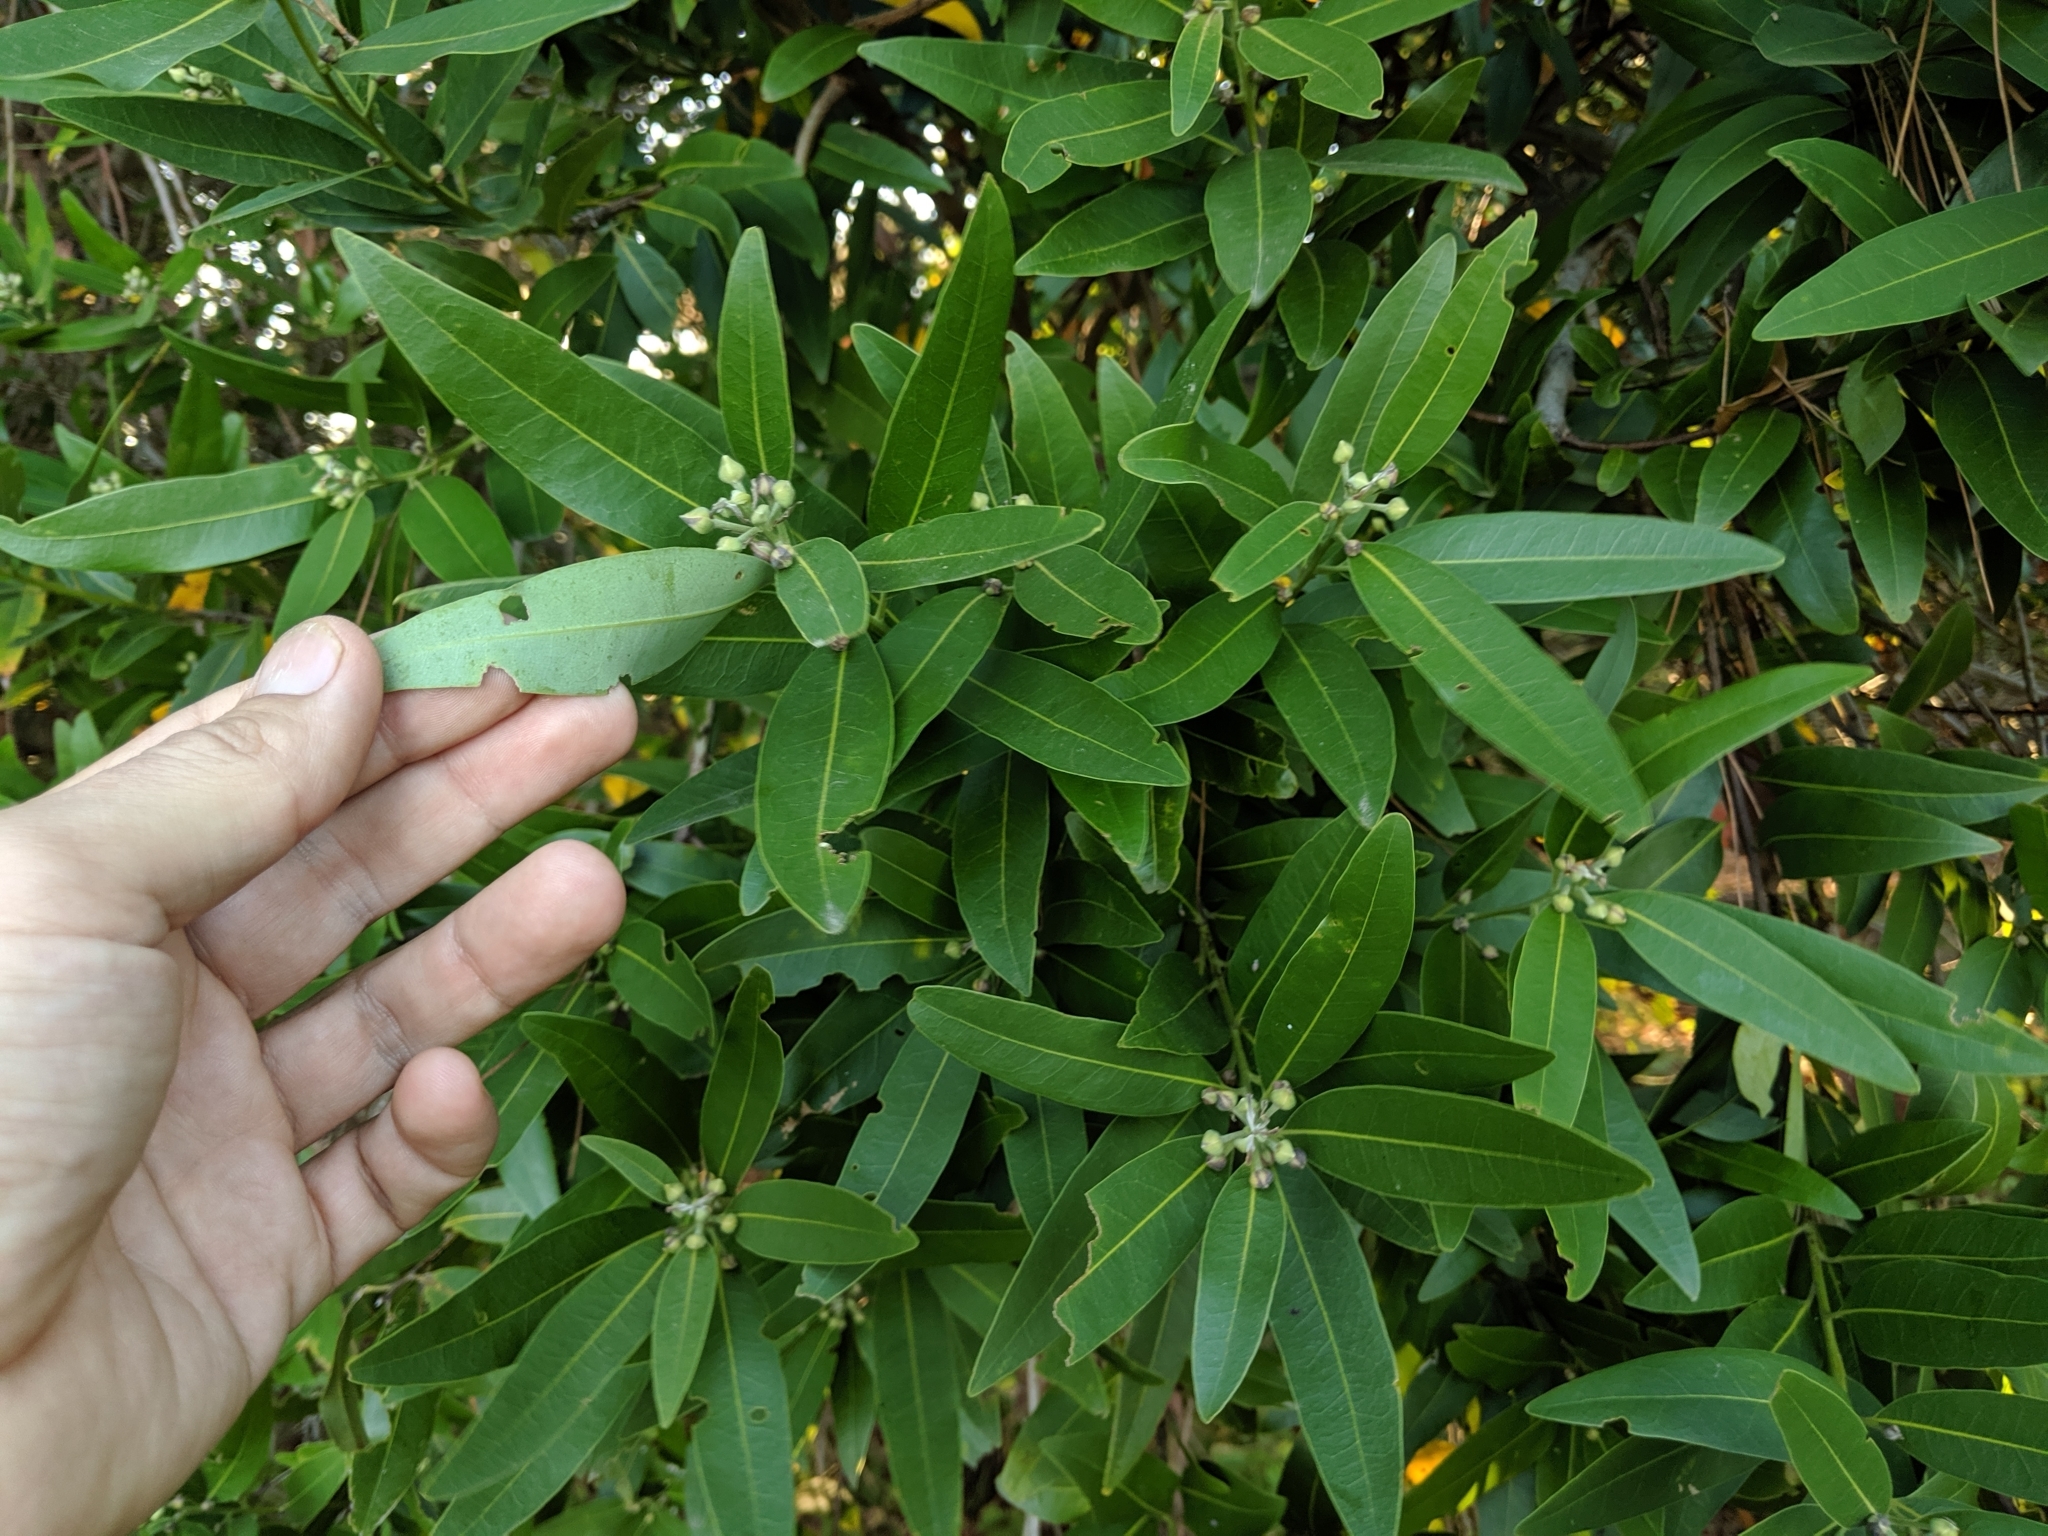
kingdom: Plantae
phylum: Tracheophyta
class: Magnoliopsida
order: Laurales
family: Lauraceae
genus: Umbellularia
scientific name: Umbellularia californica
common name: California bay
